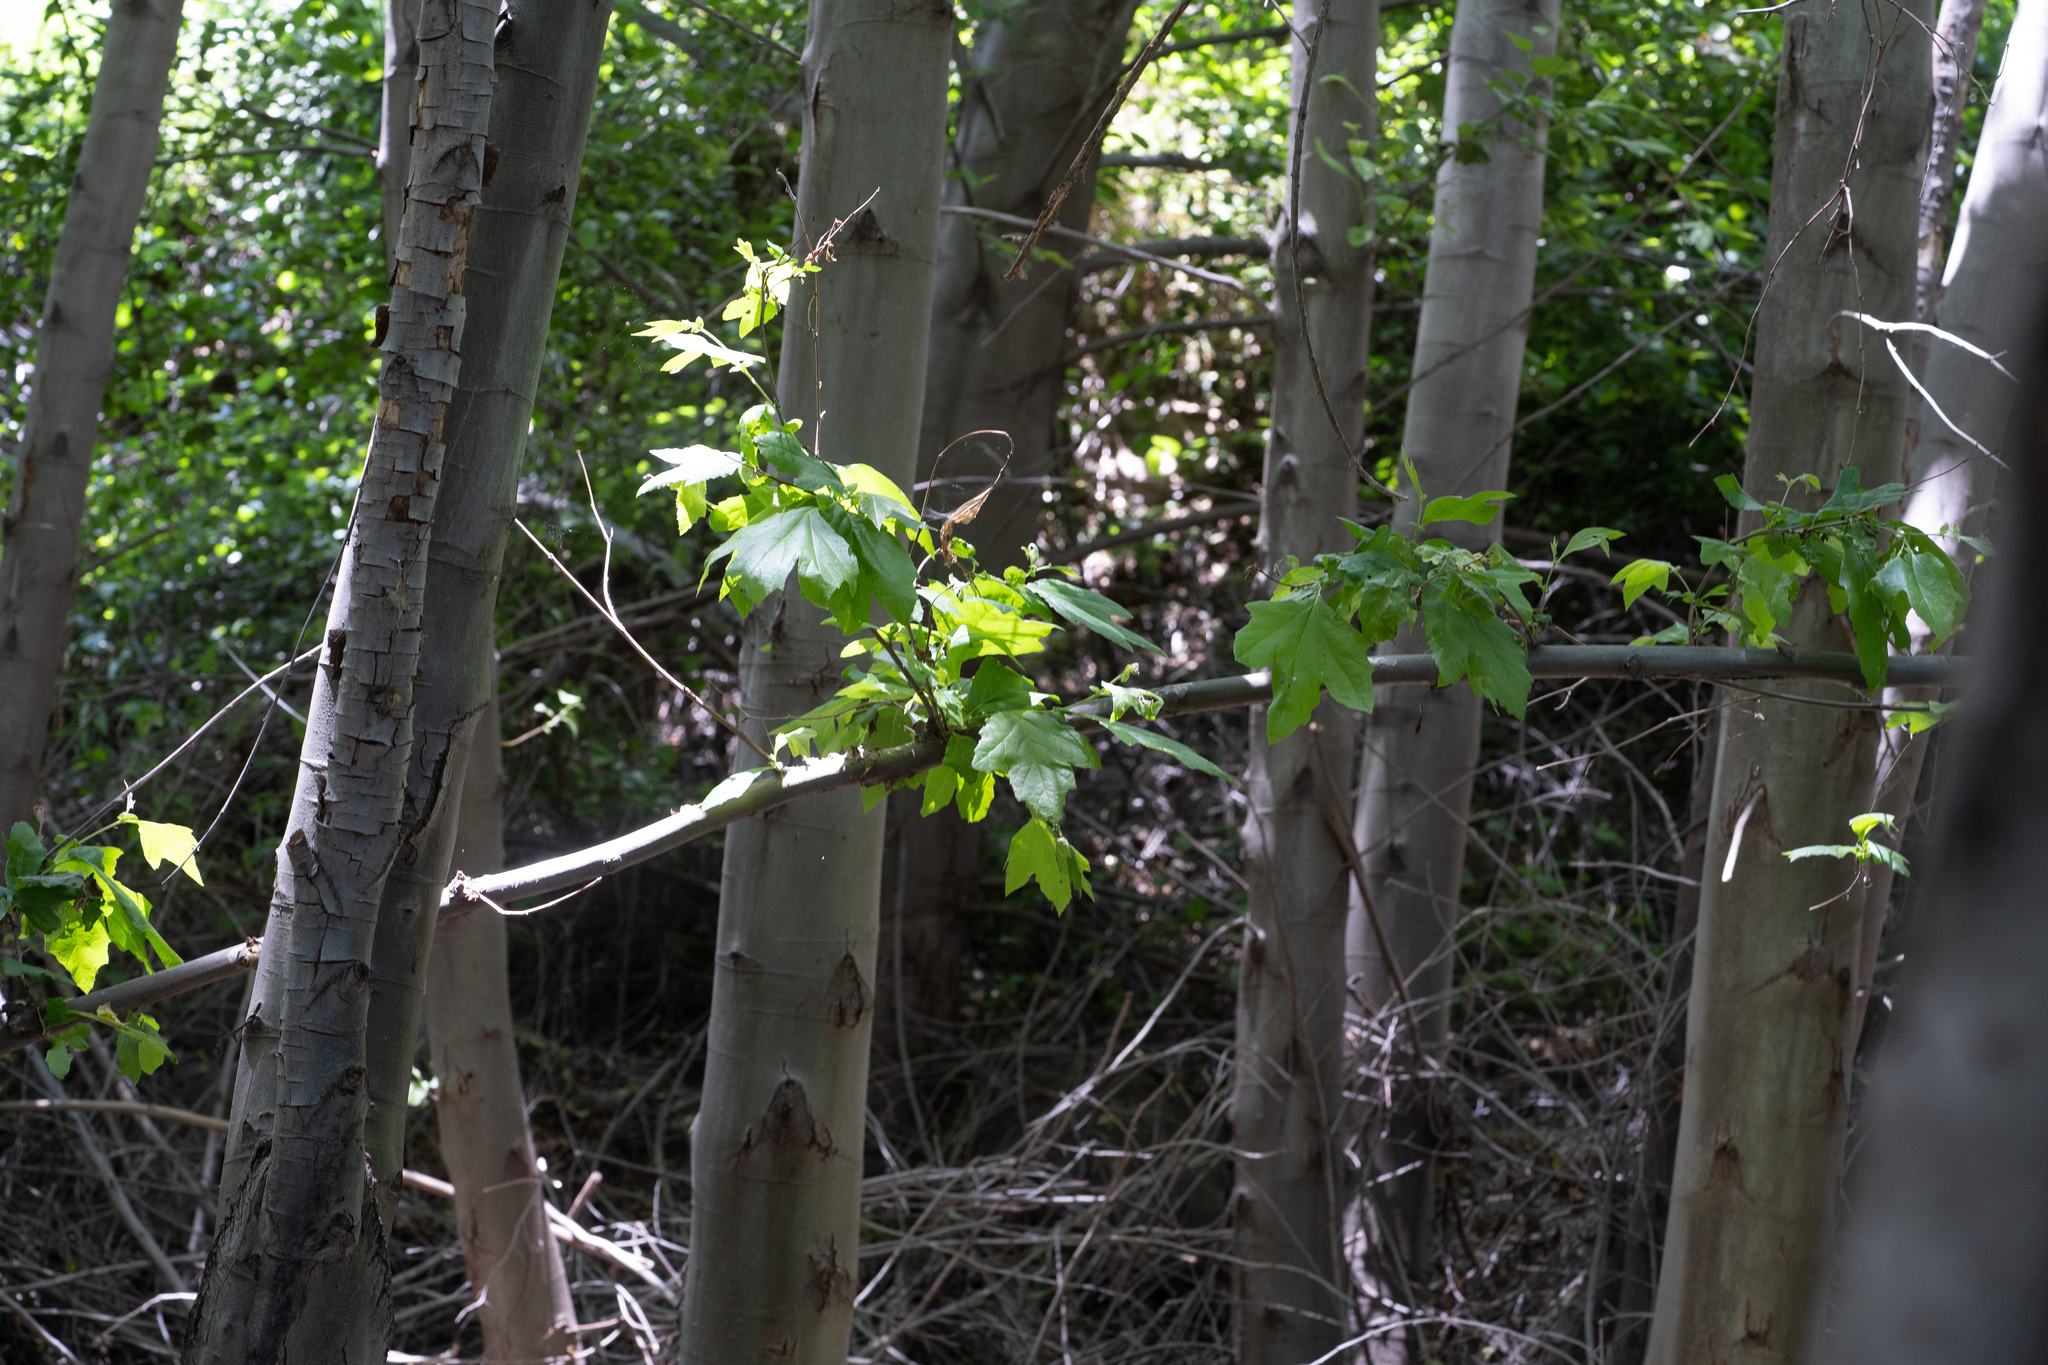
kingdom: Plantae
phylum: Tracheophyta
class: Magnoliopsida
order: Proteales
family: Platanaceae
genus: Platanus
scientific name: Platanus racemosa
